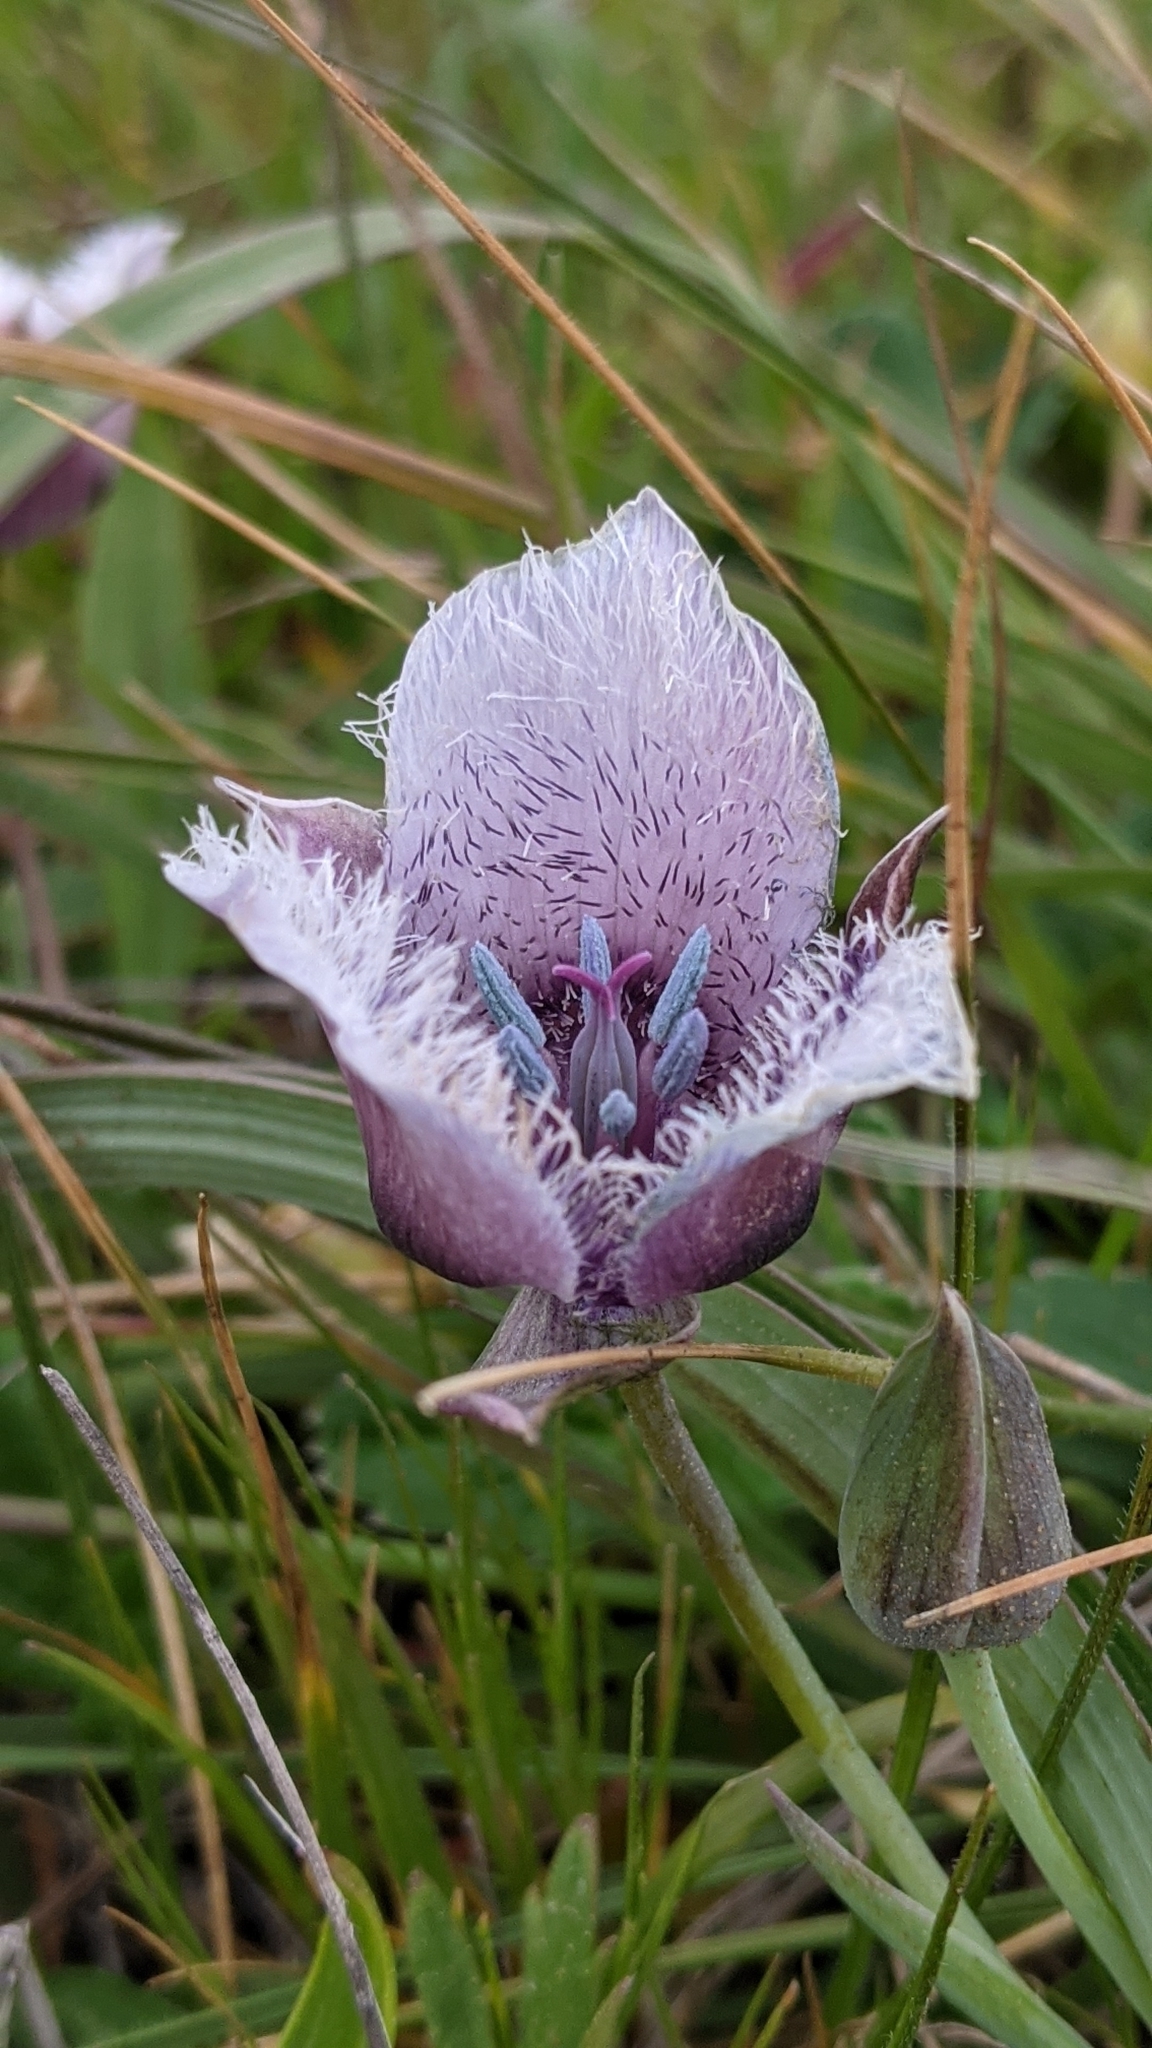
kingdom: Plantae
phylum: Tracheophyta
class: Liliopsida
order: Liliales
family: Liliaceae
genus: Calochortus
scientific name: Calochortus tolmiei
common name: Pussy-ears
